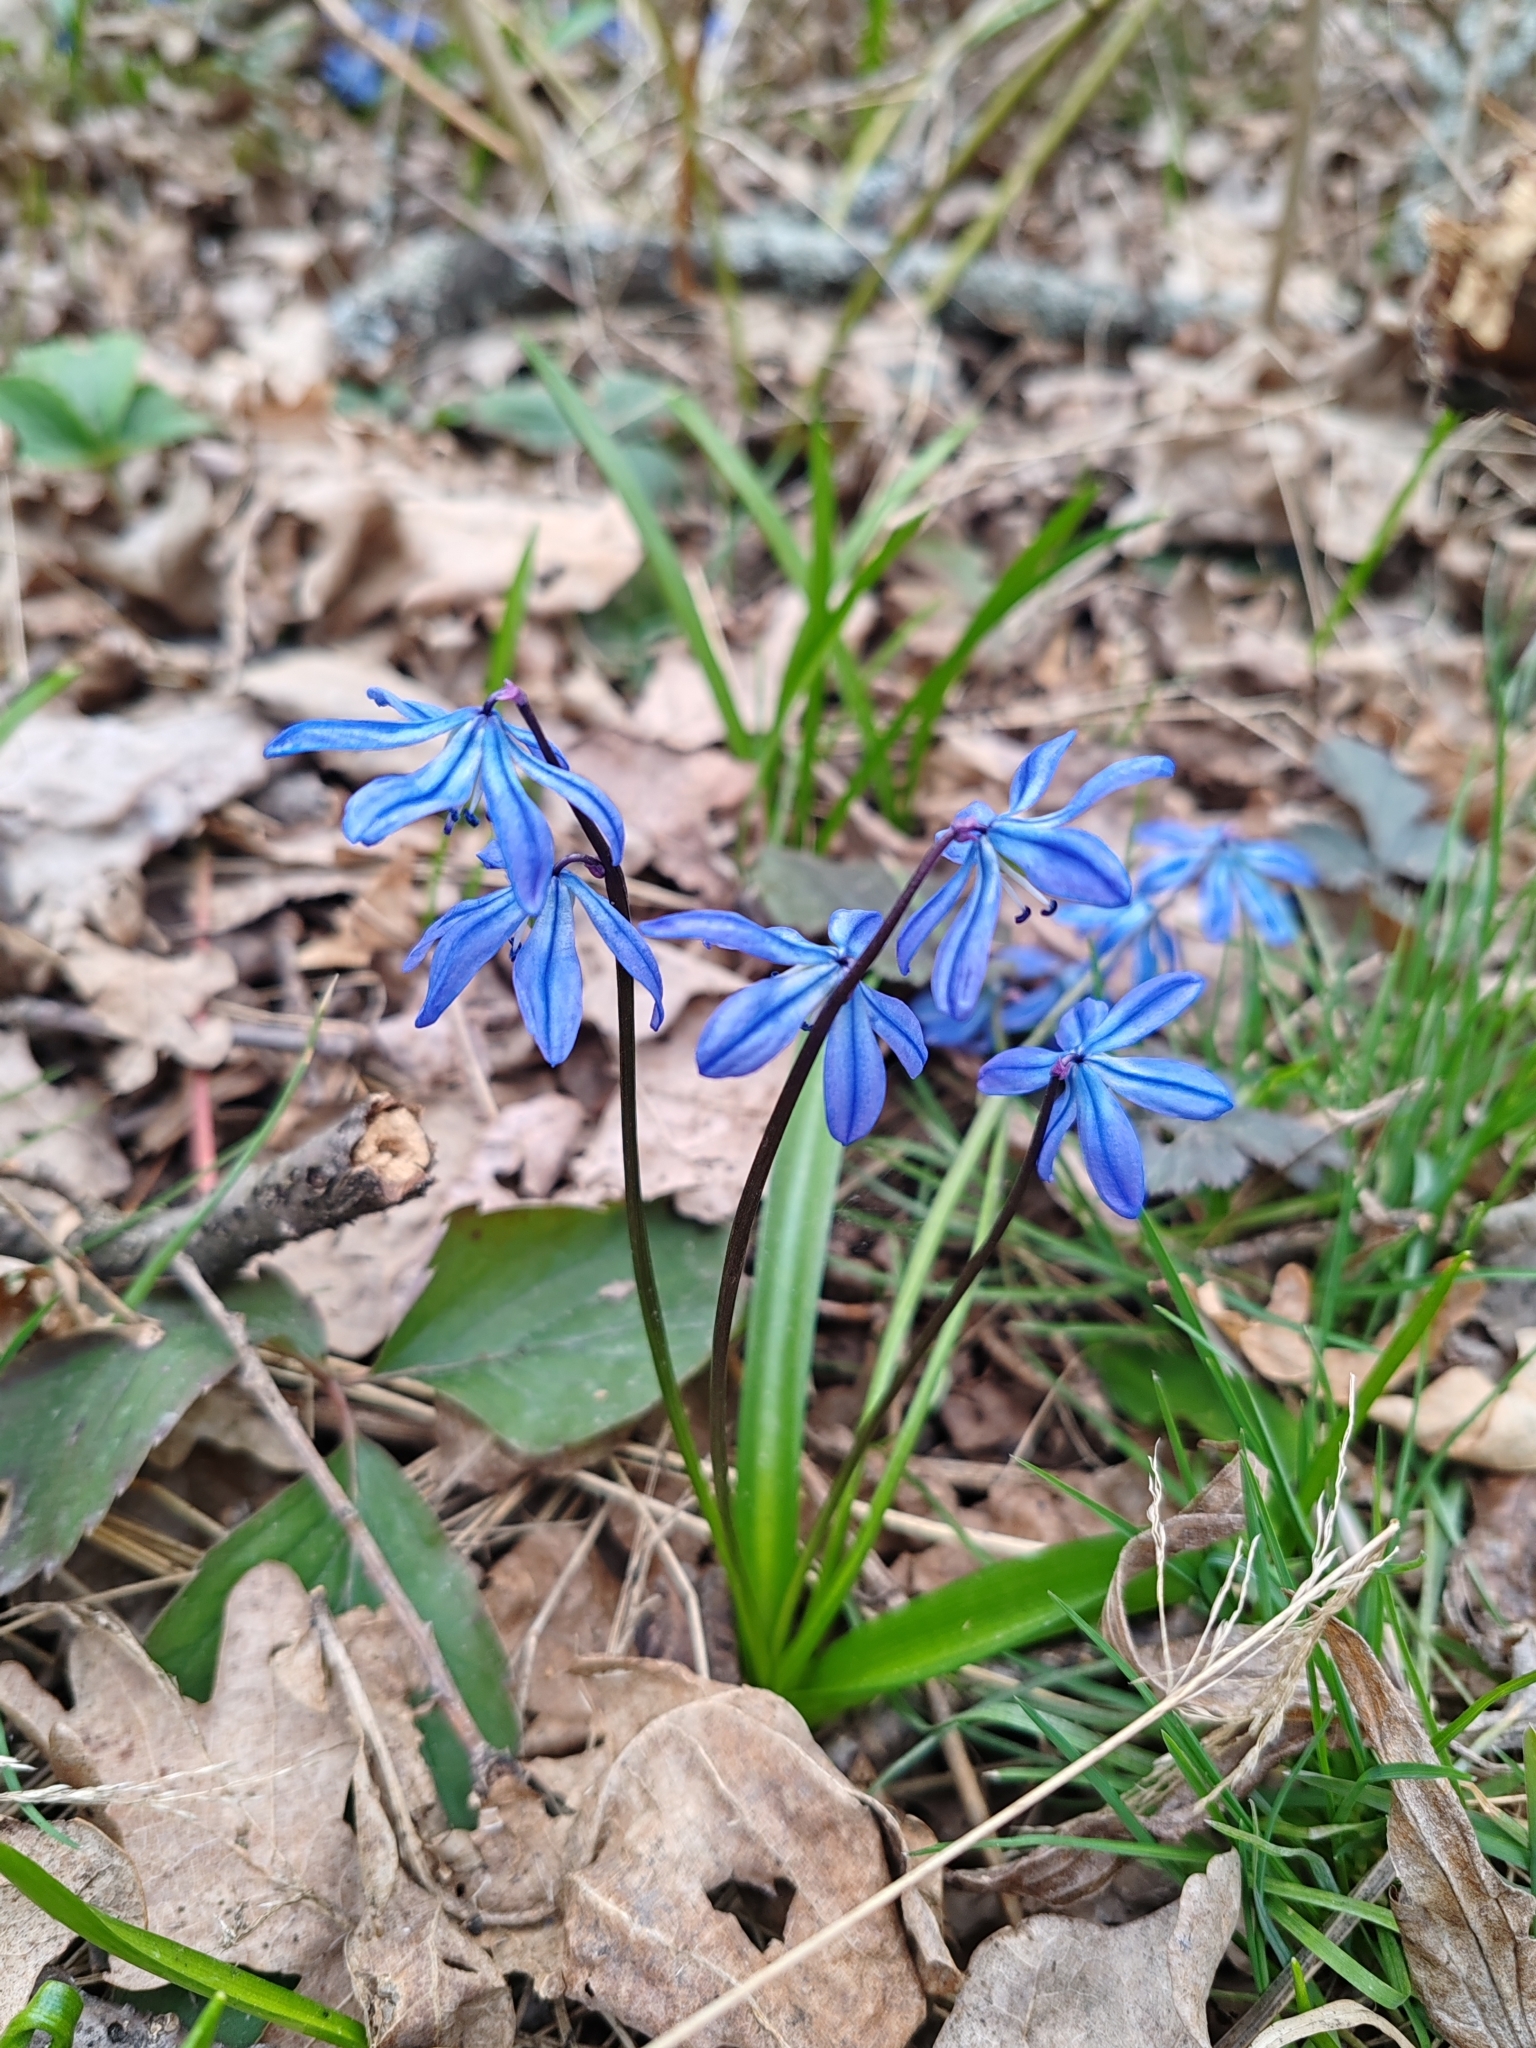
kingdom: Plantae
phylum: Tracheophyta
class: Liliopsida
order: Asparagales
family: Asparagaceae
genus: Scilla
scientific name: Scilla siberica
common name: Siberian squill
